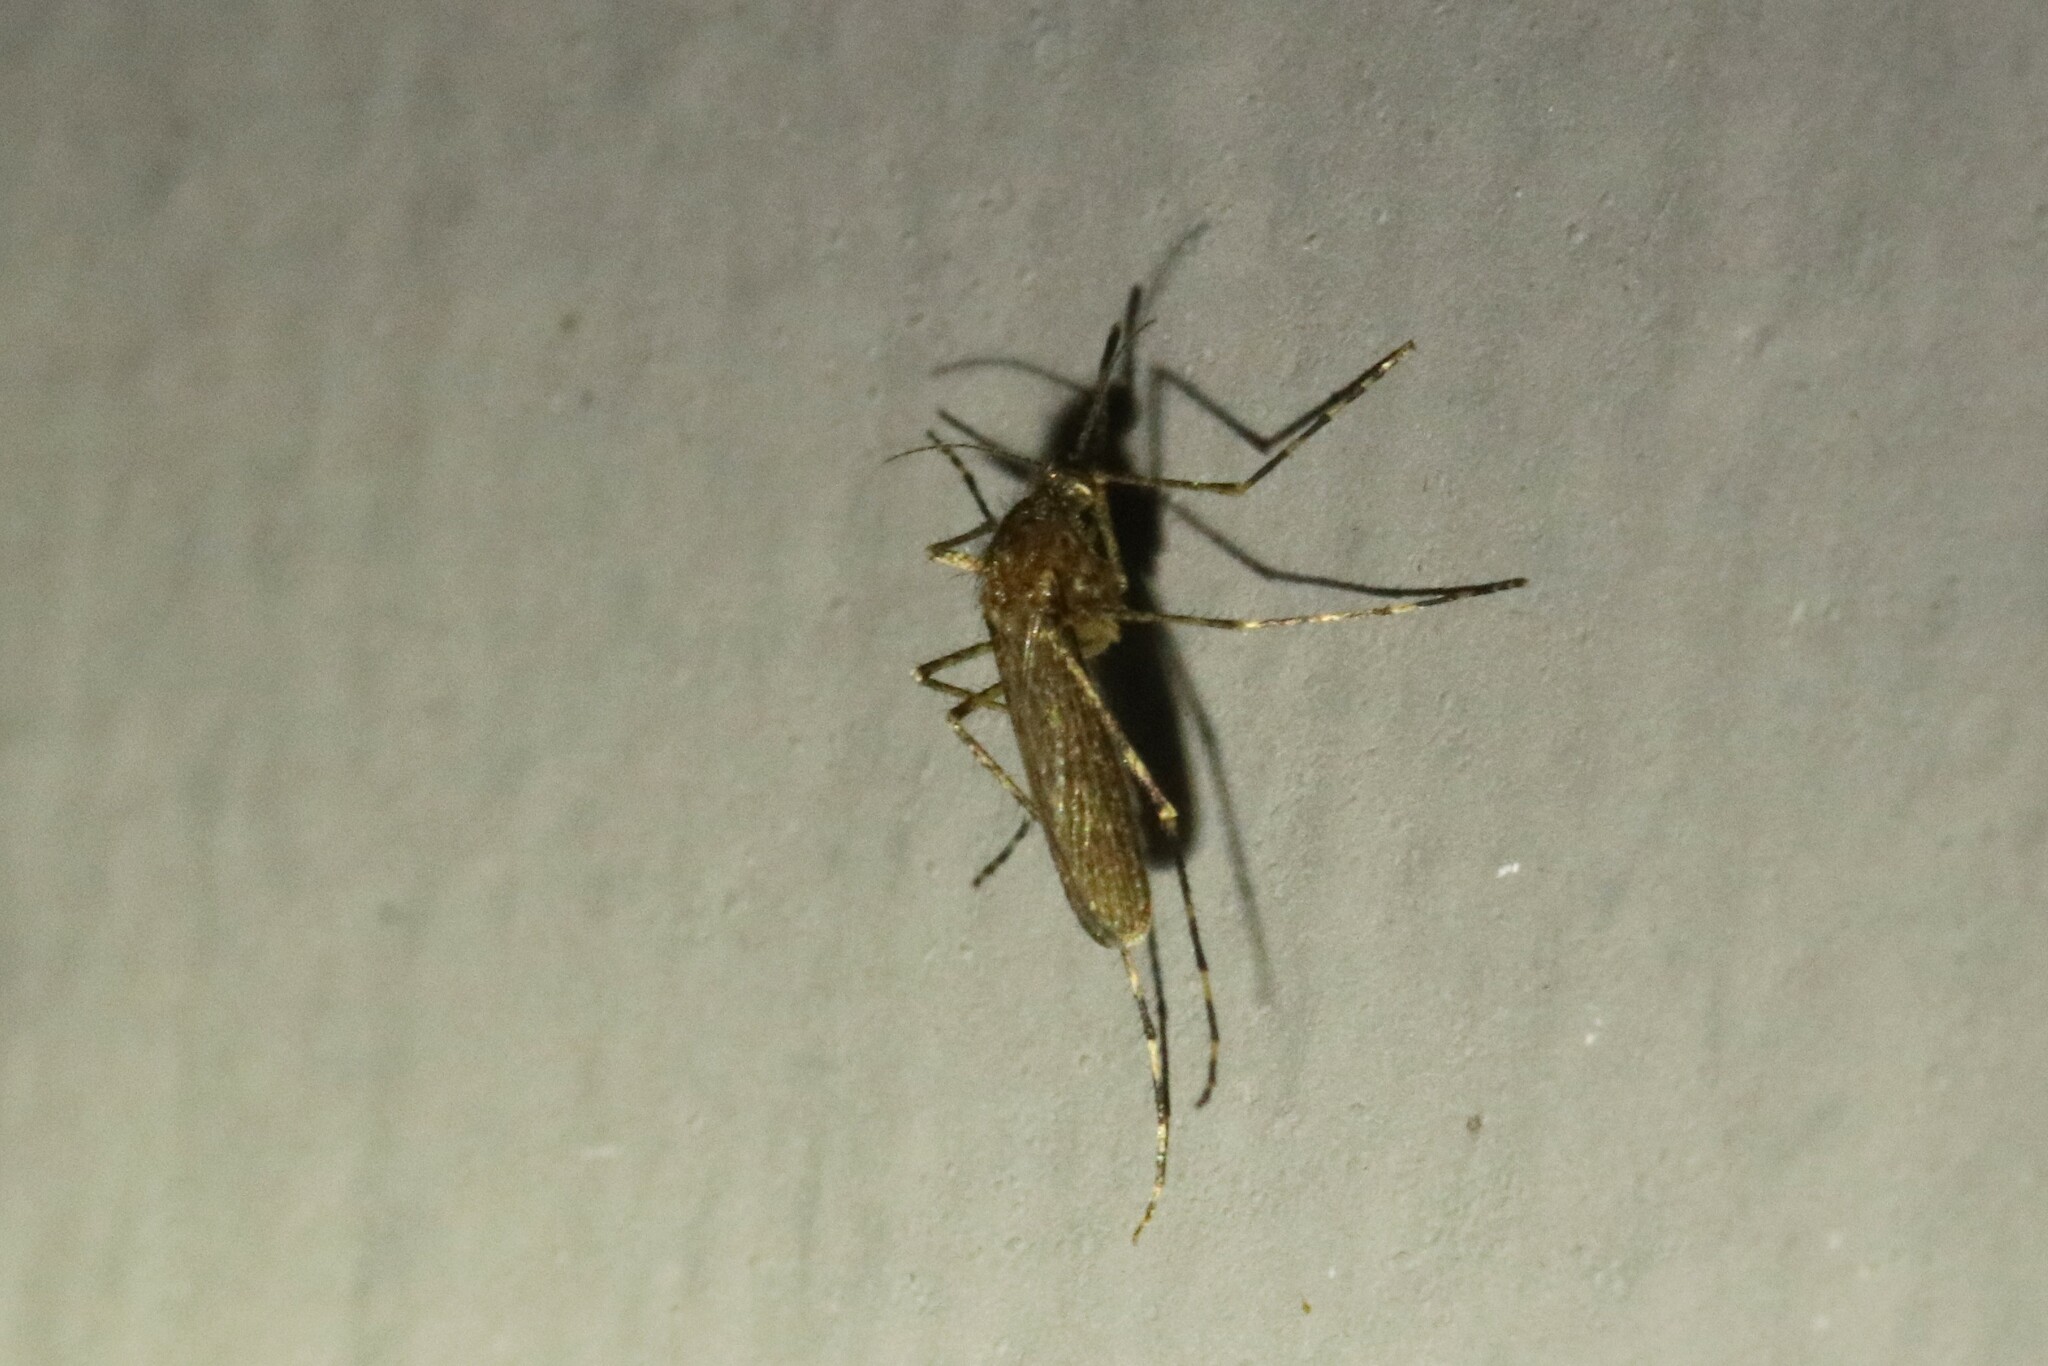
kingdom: Animalia
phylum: Arthropoda
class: Insecta
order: Diptera
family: Culicidae
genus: Coquillettidia
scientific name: Coquillettidia perturbans
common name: Cattail mosquito
